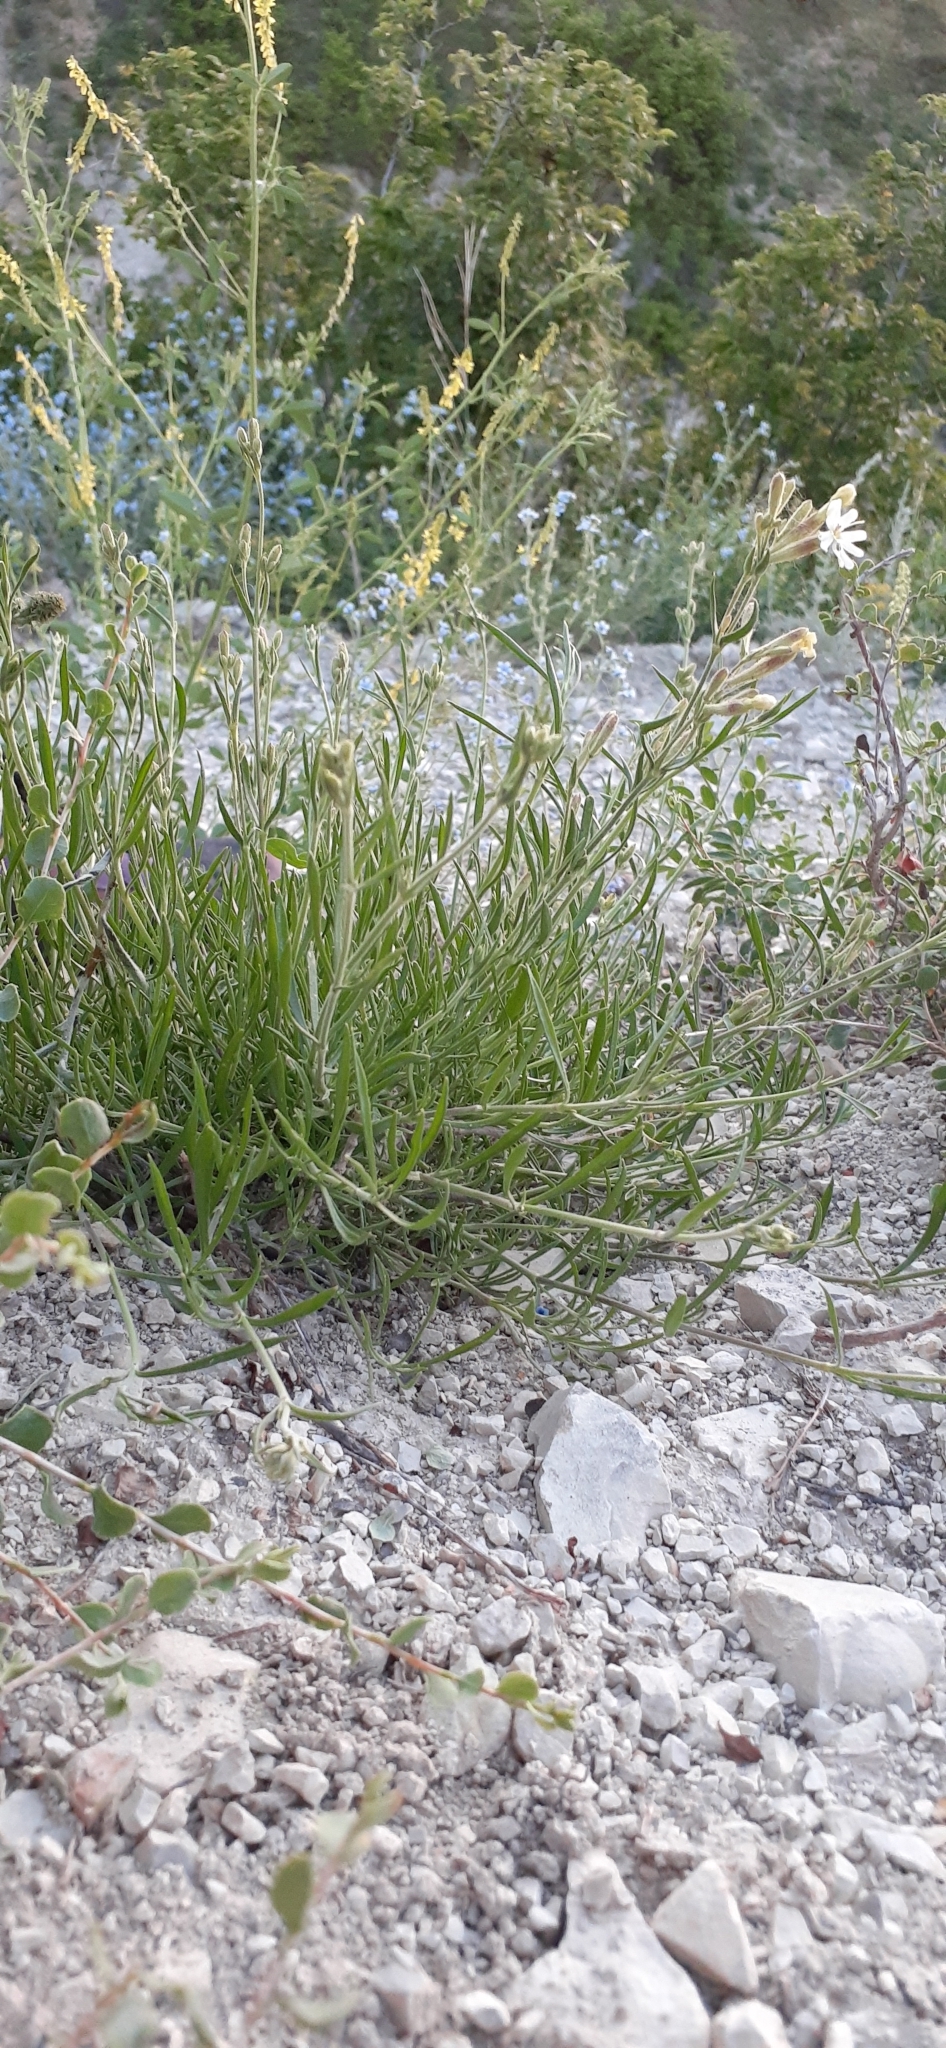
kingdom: Plantae
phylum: Tracheophyta
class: Magnoliopsida
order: Caryophyllales
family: Caryophyllaceae
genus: Silene
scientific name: Silene supina
